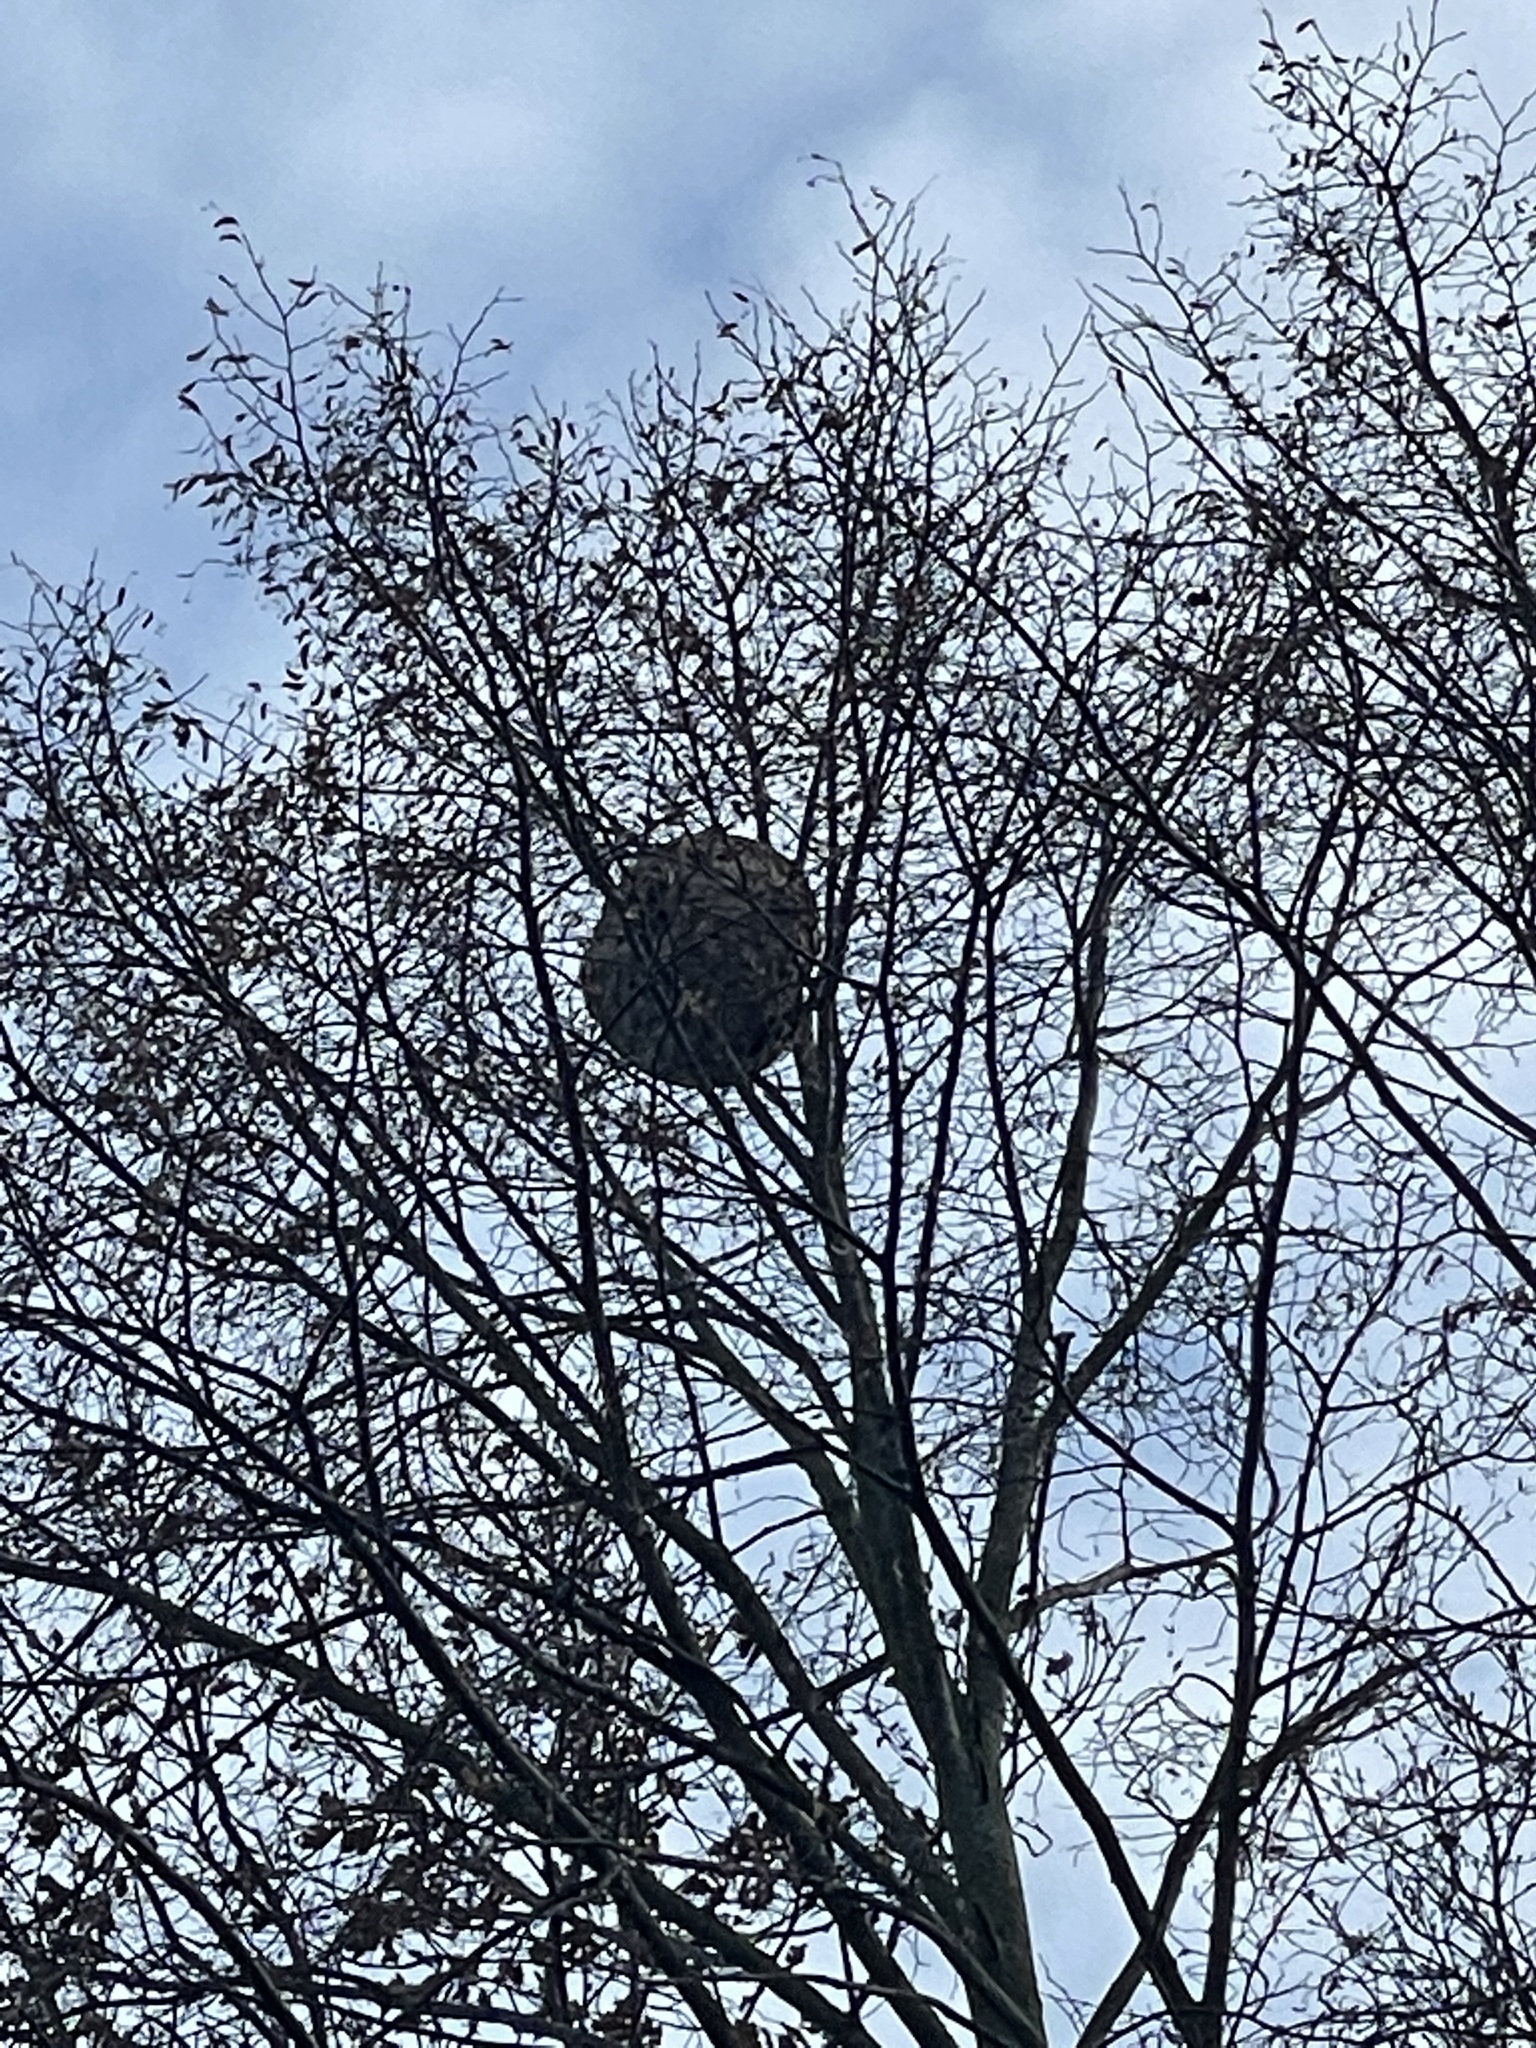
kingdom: Animalia
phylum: Arthropoda
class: Insecta
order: Hymenoptera
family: Vespidae
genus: Vespa
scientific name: Vespa velutina
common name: Asian hornet
